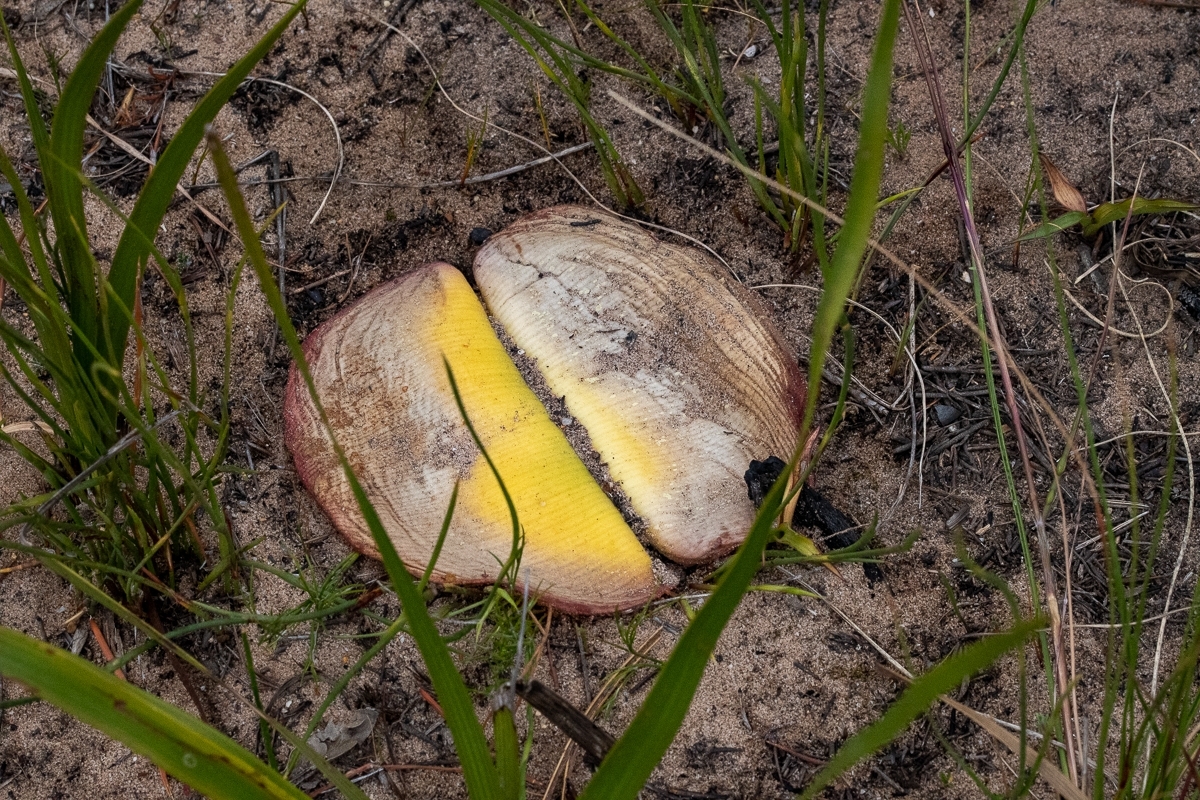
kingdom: Plantae
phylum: Tracheophyta
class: Liliopsida
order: Asparagales
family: Amaryllidaceae
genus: Haemanthus
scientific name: Haemanthus sanguineus
